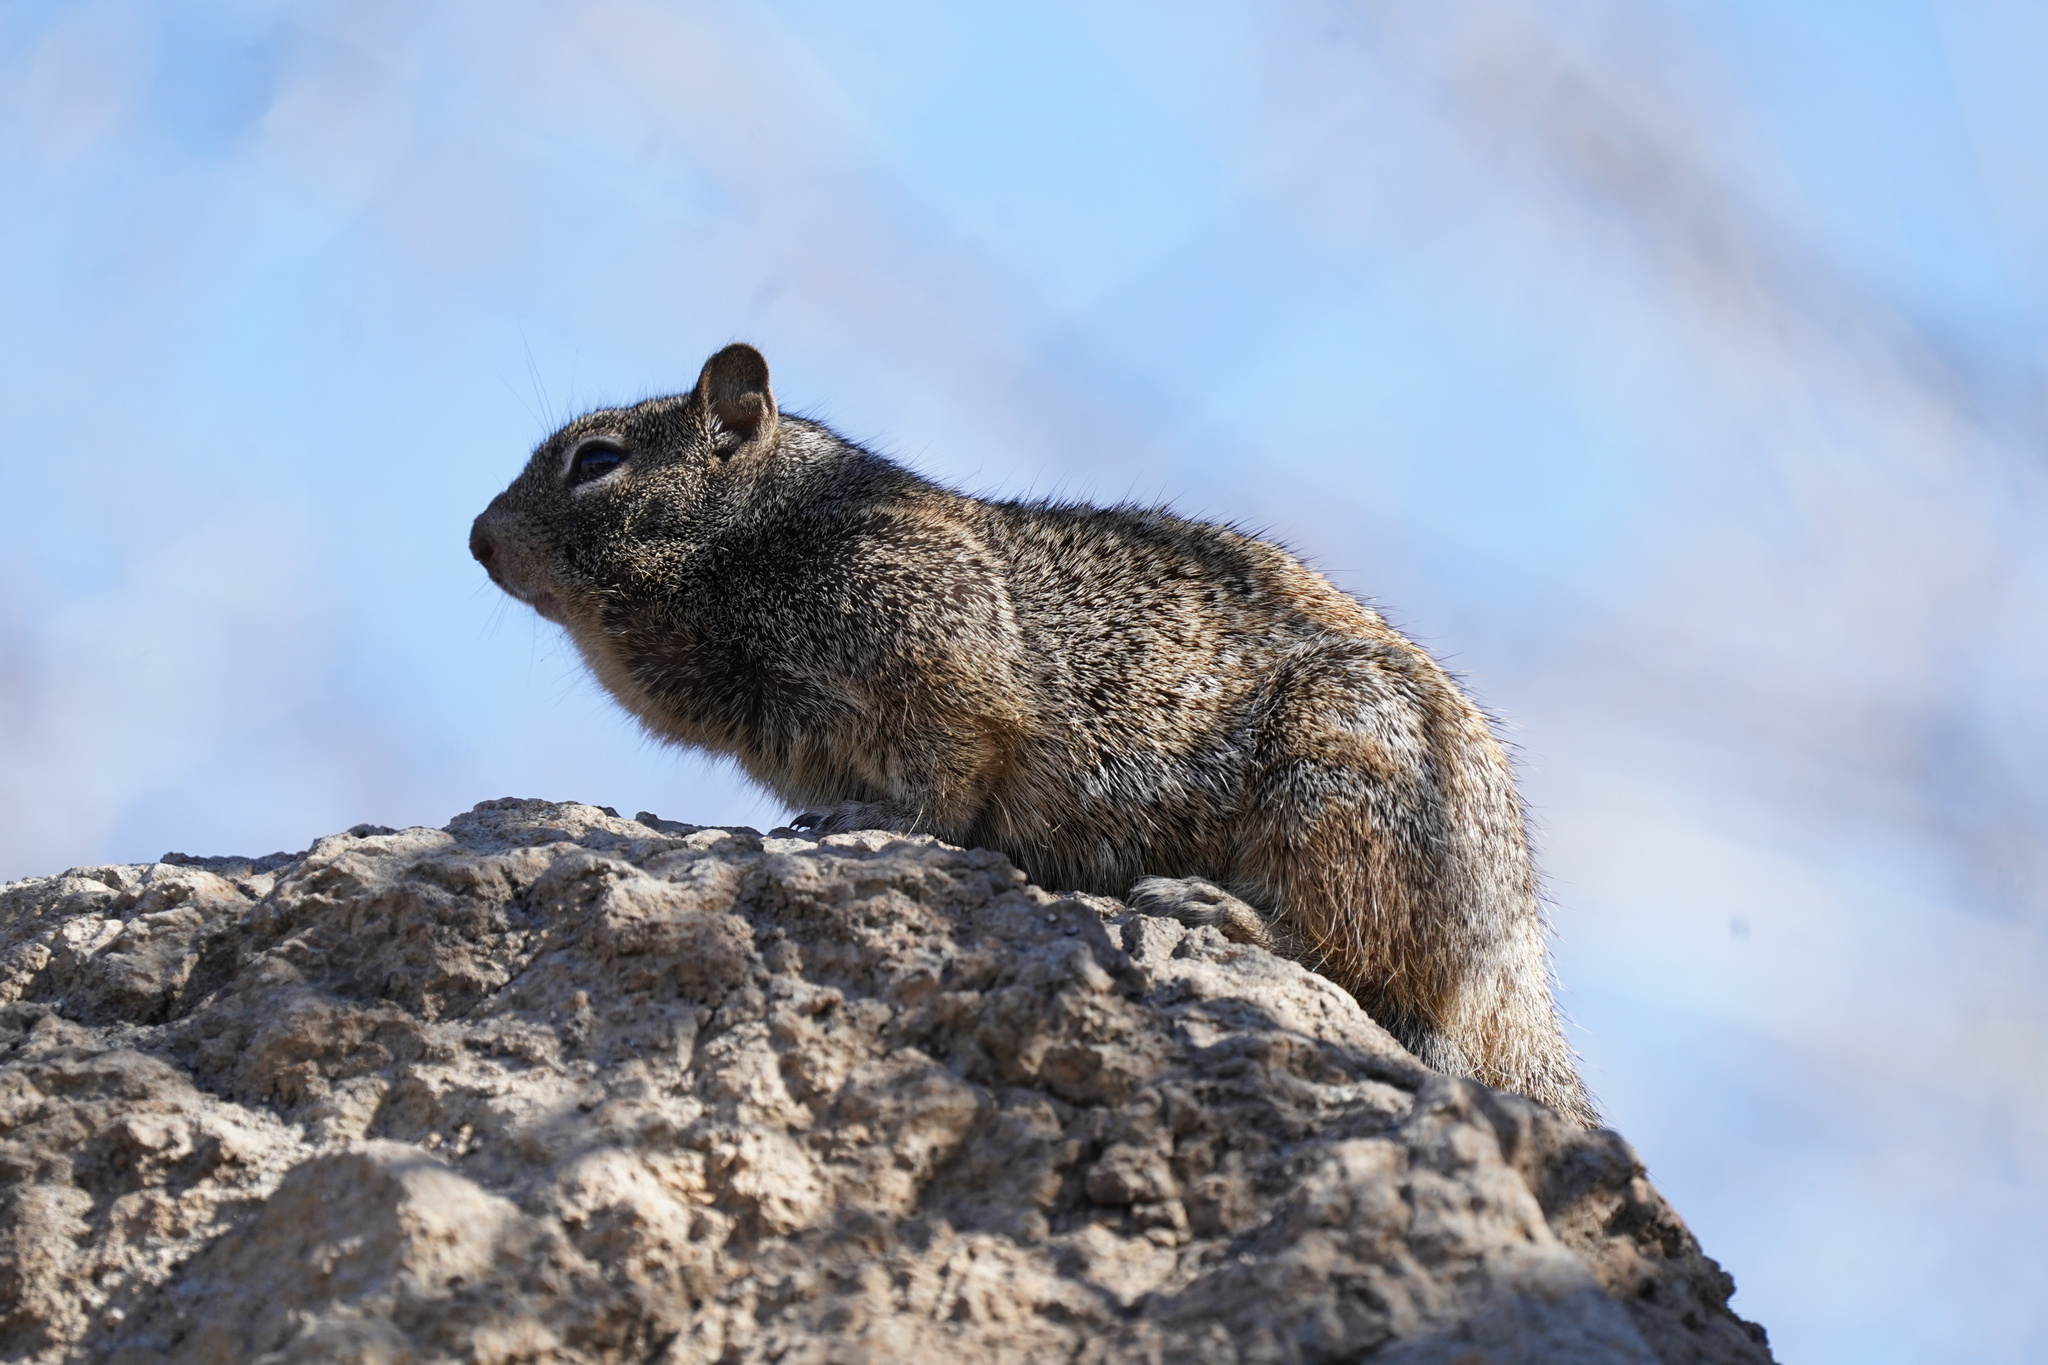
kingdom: Animalia
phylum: Chordata
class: Mammalia
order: Rodentia
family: Sciuridae
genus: Otospermophilus
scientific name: Otospermophilus variegatus
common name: Rock squirrel
